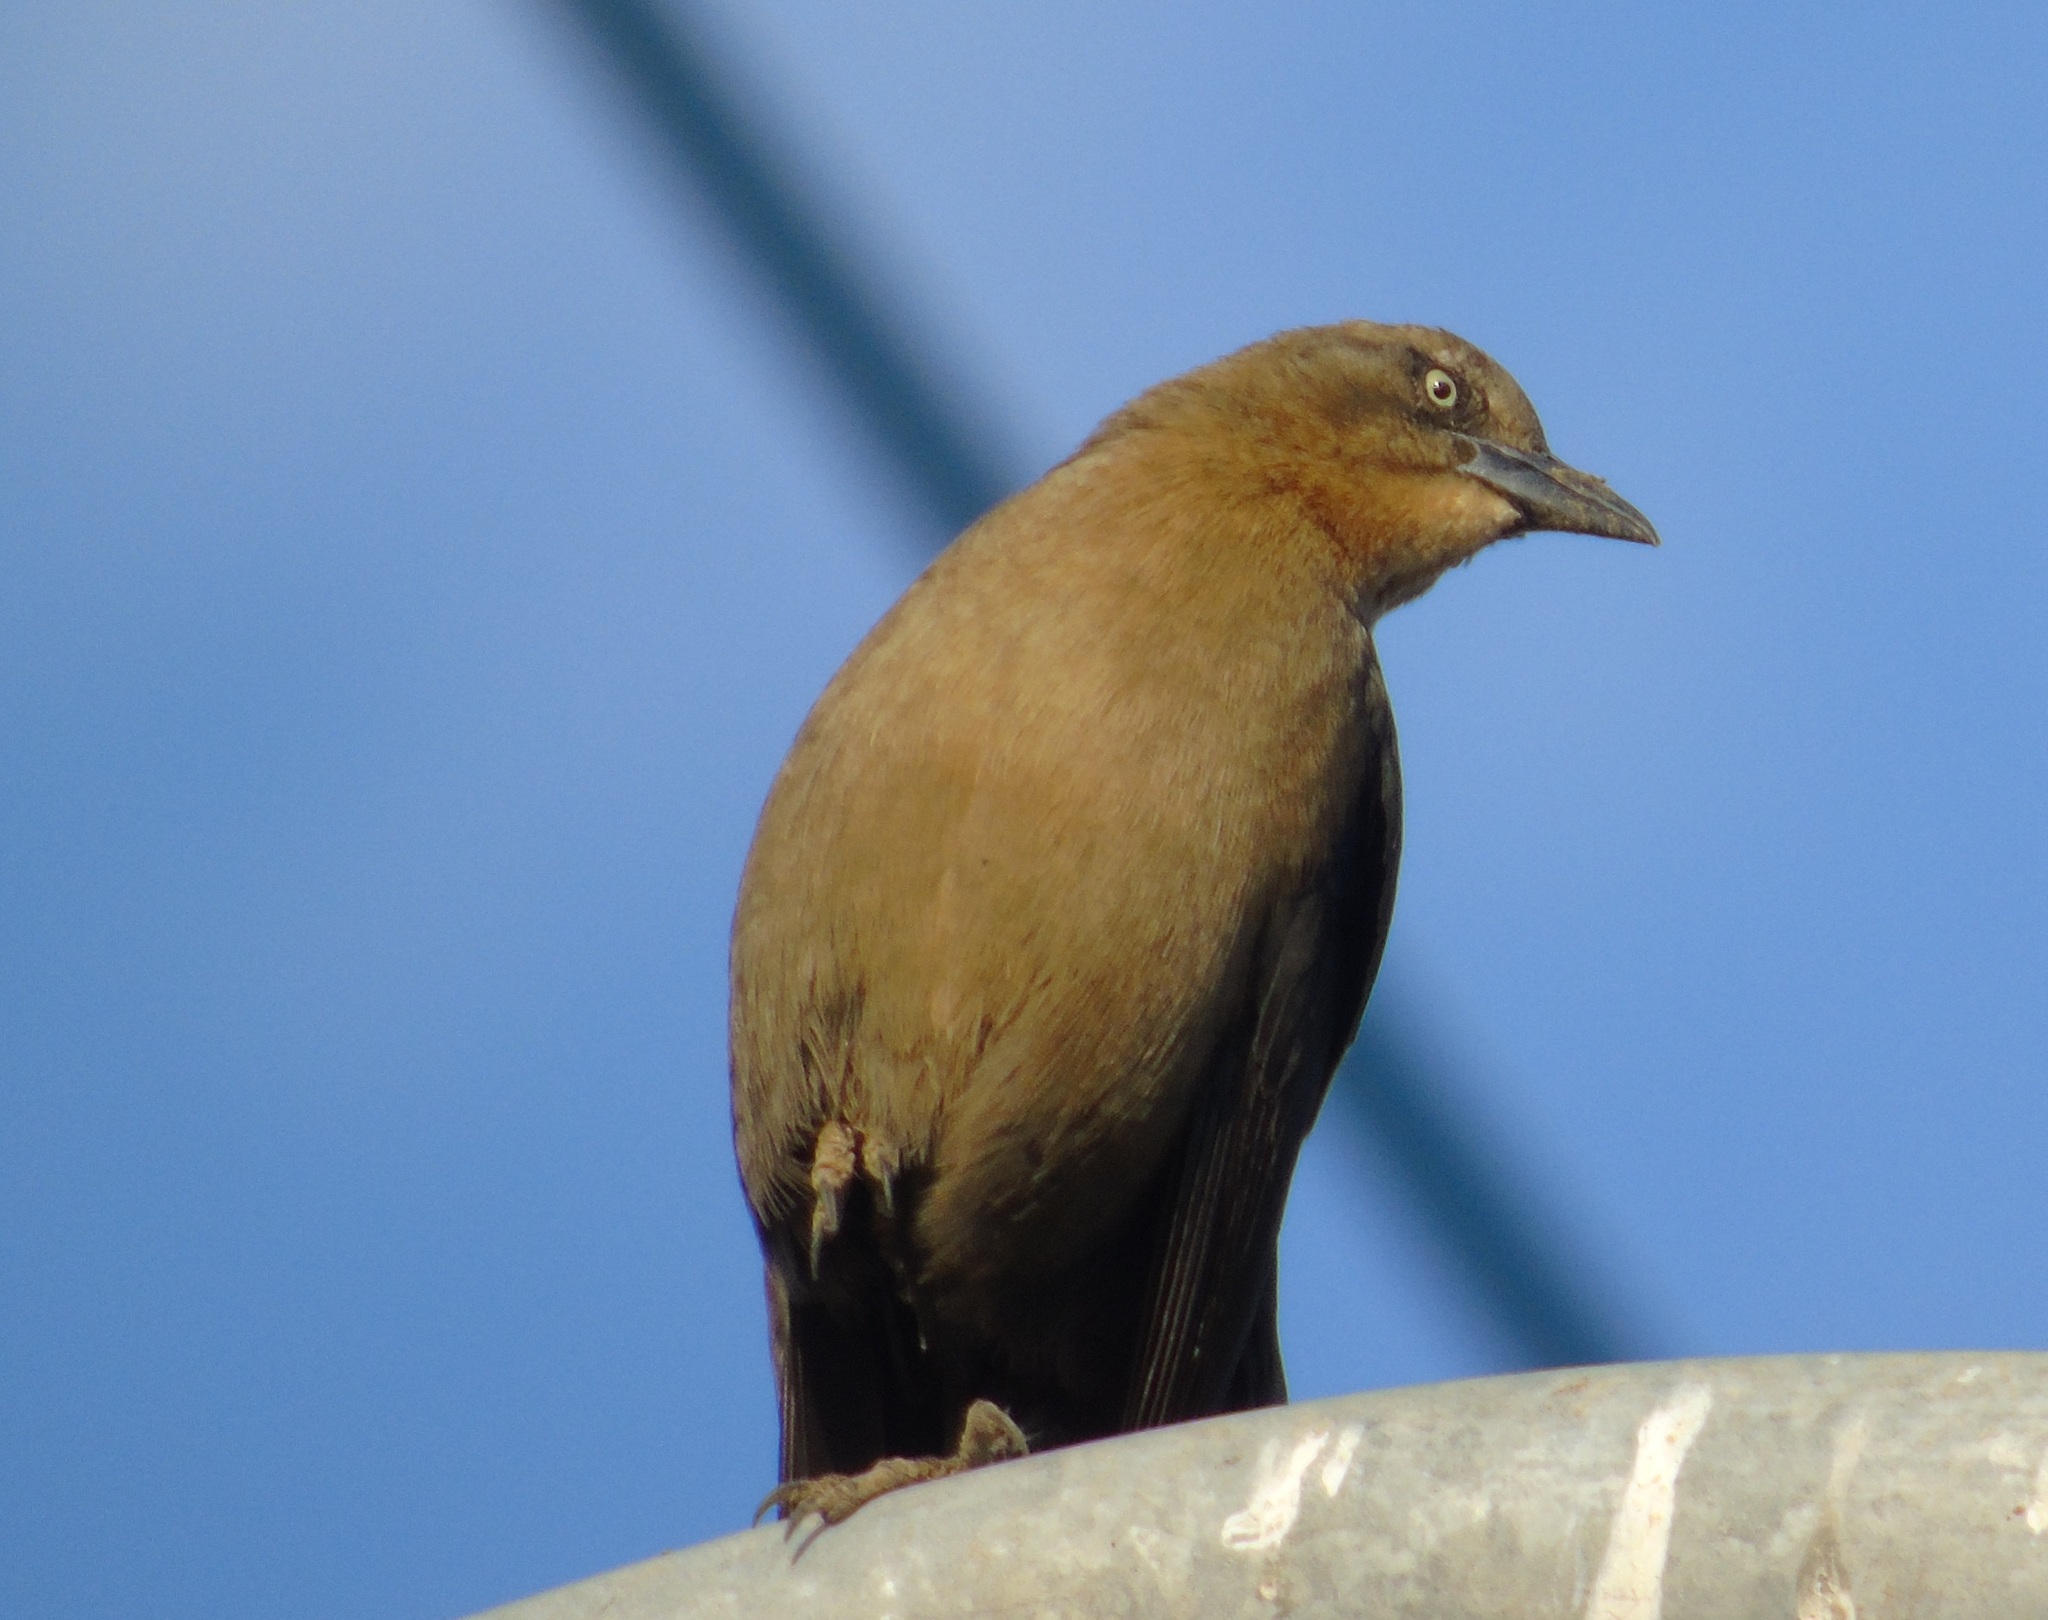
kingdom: Animalia
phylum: Chordata
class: Aves
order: Passeriformes
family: Icteridae
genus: Quiscalus
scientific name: Quiscalus mexicanus
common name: Great-tailed grackle
